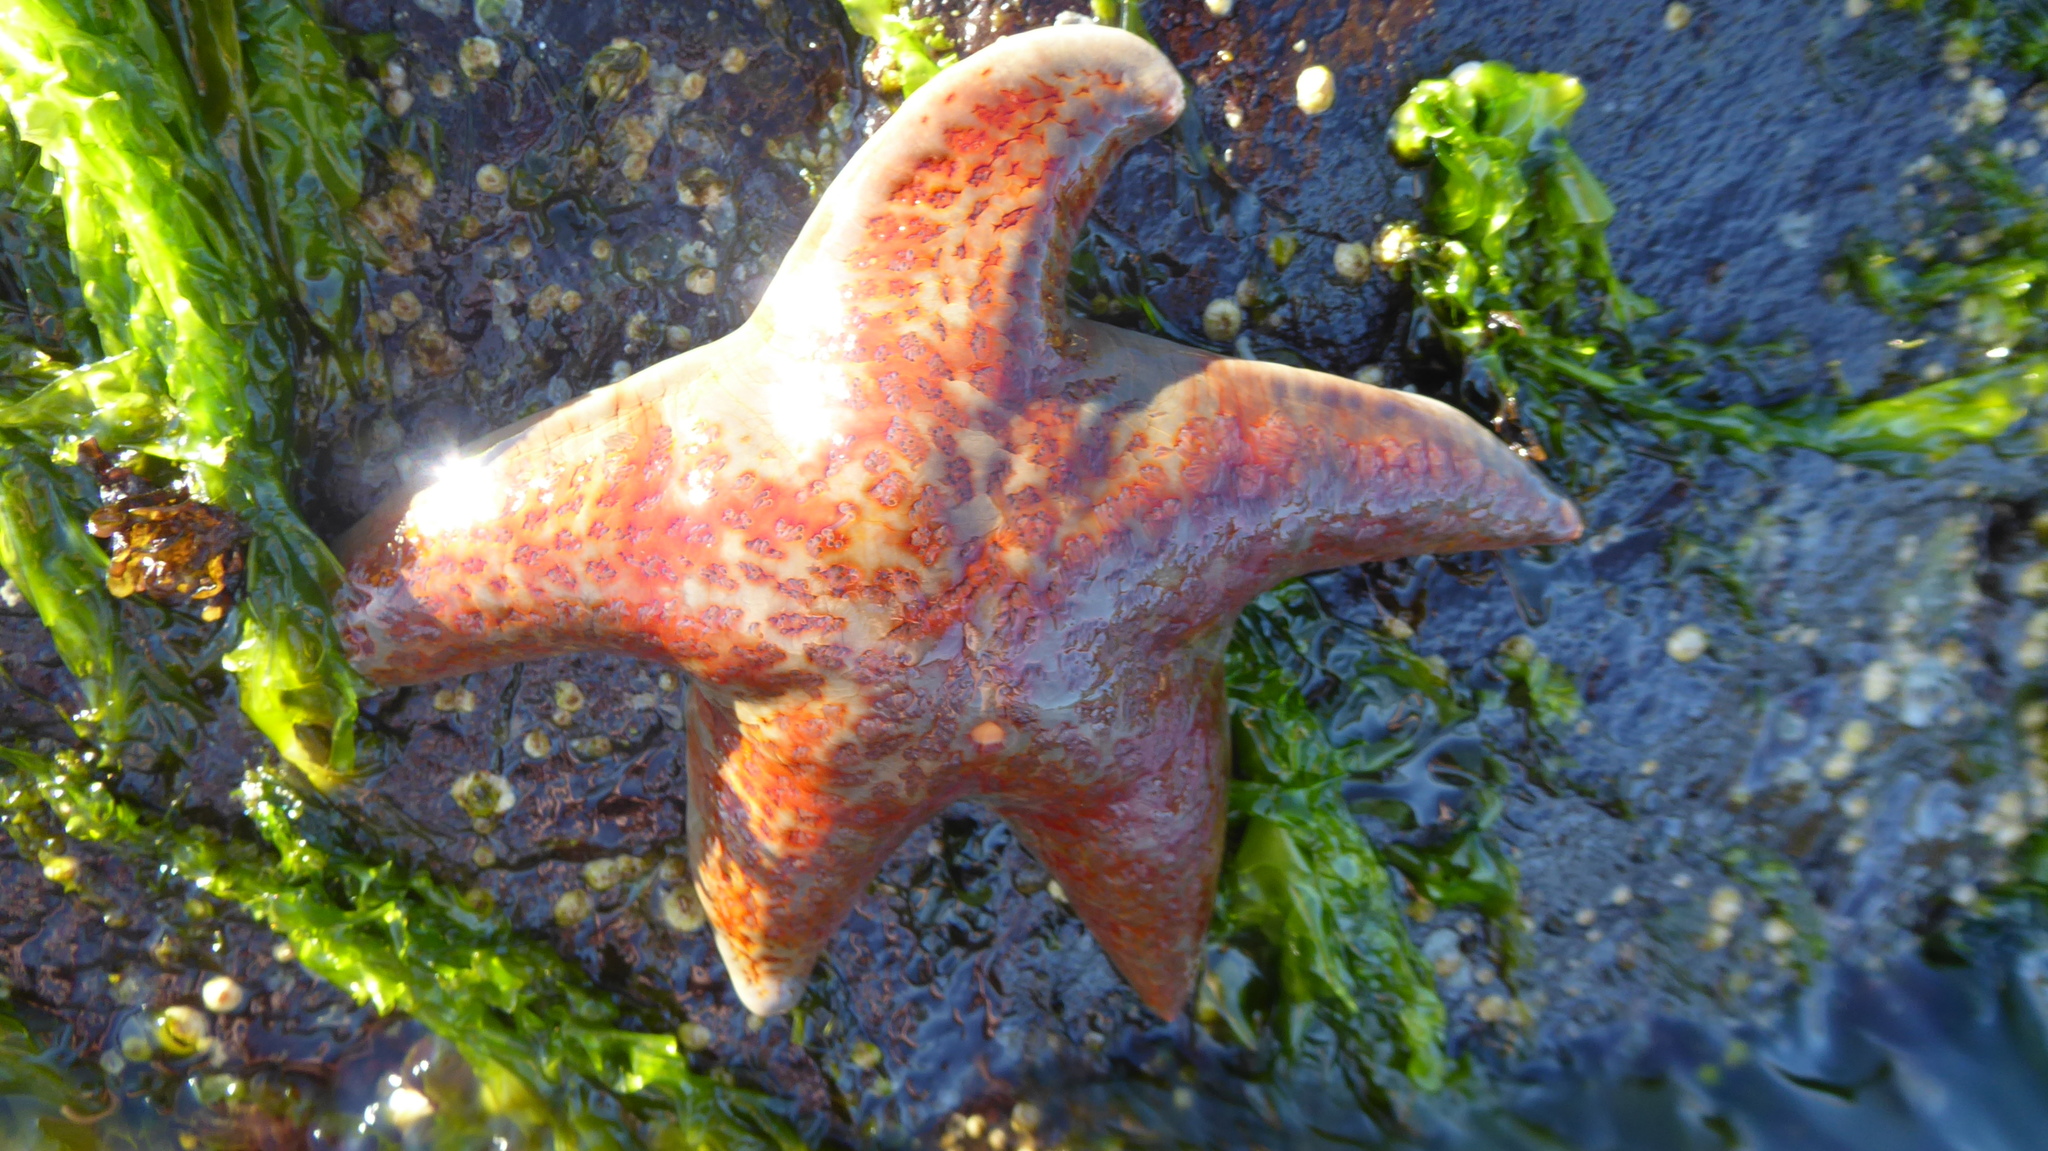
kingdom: Animalia
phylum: Echinodermata
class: Asteroidea
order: Valvatida
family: Asteropseidae
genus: Dermasterias
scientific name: Dermasterias imbricata
